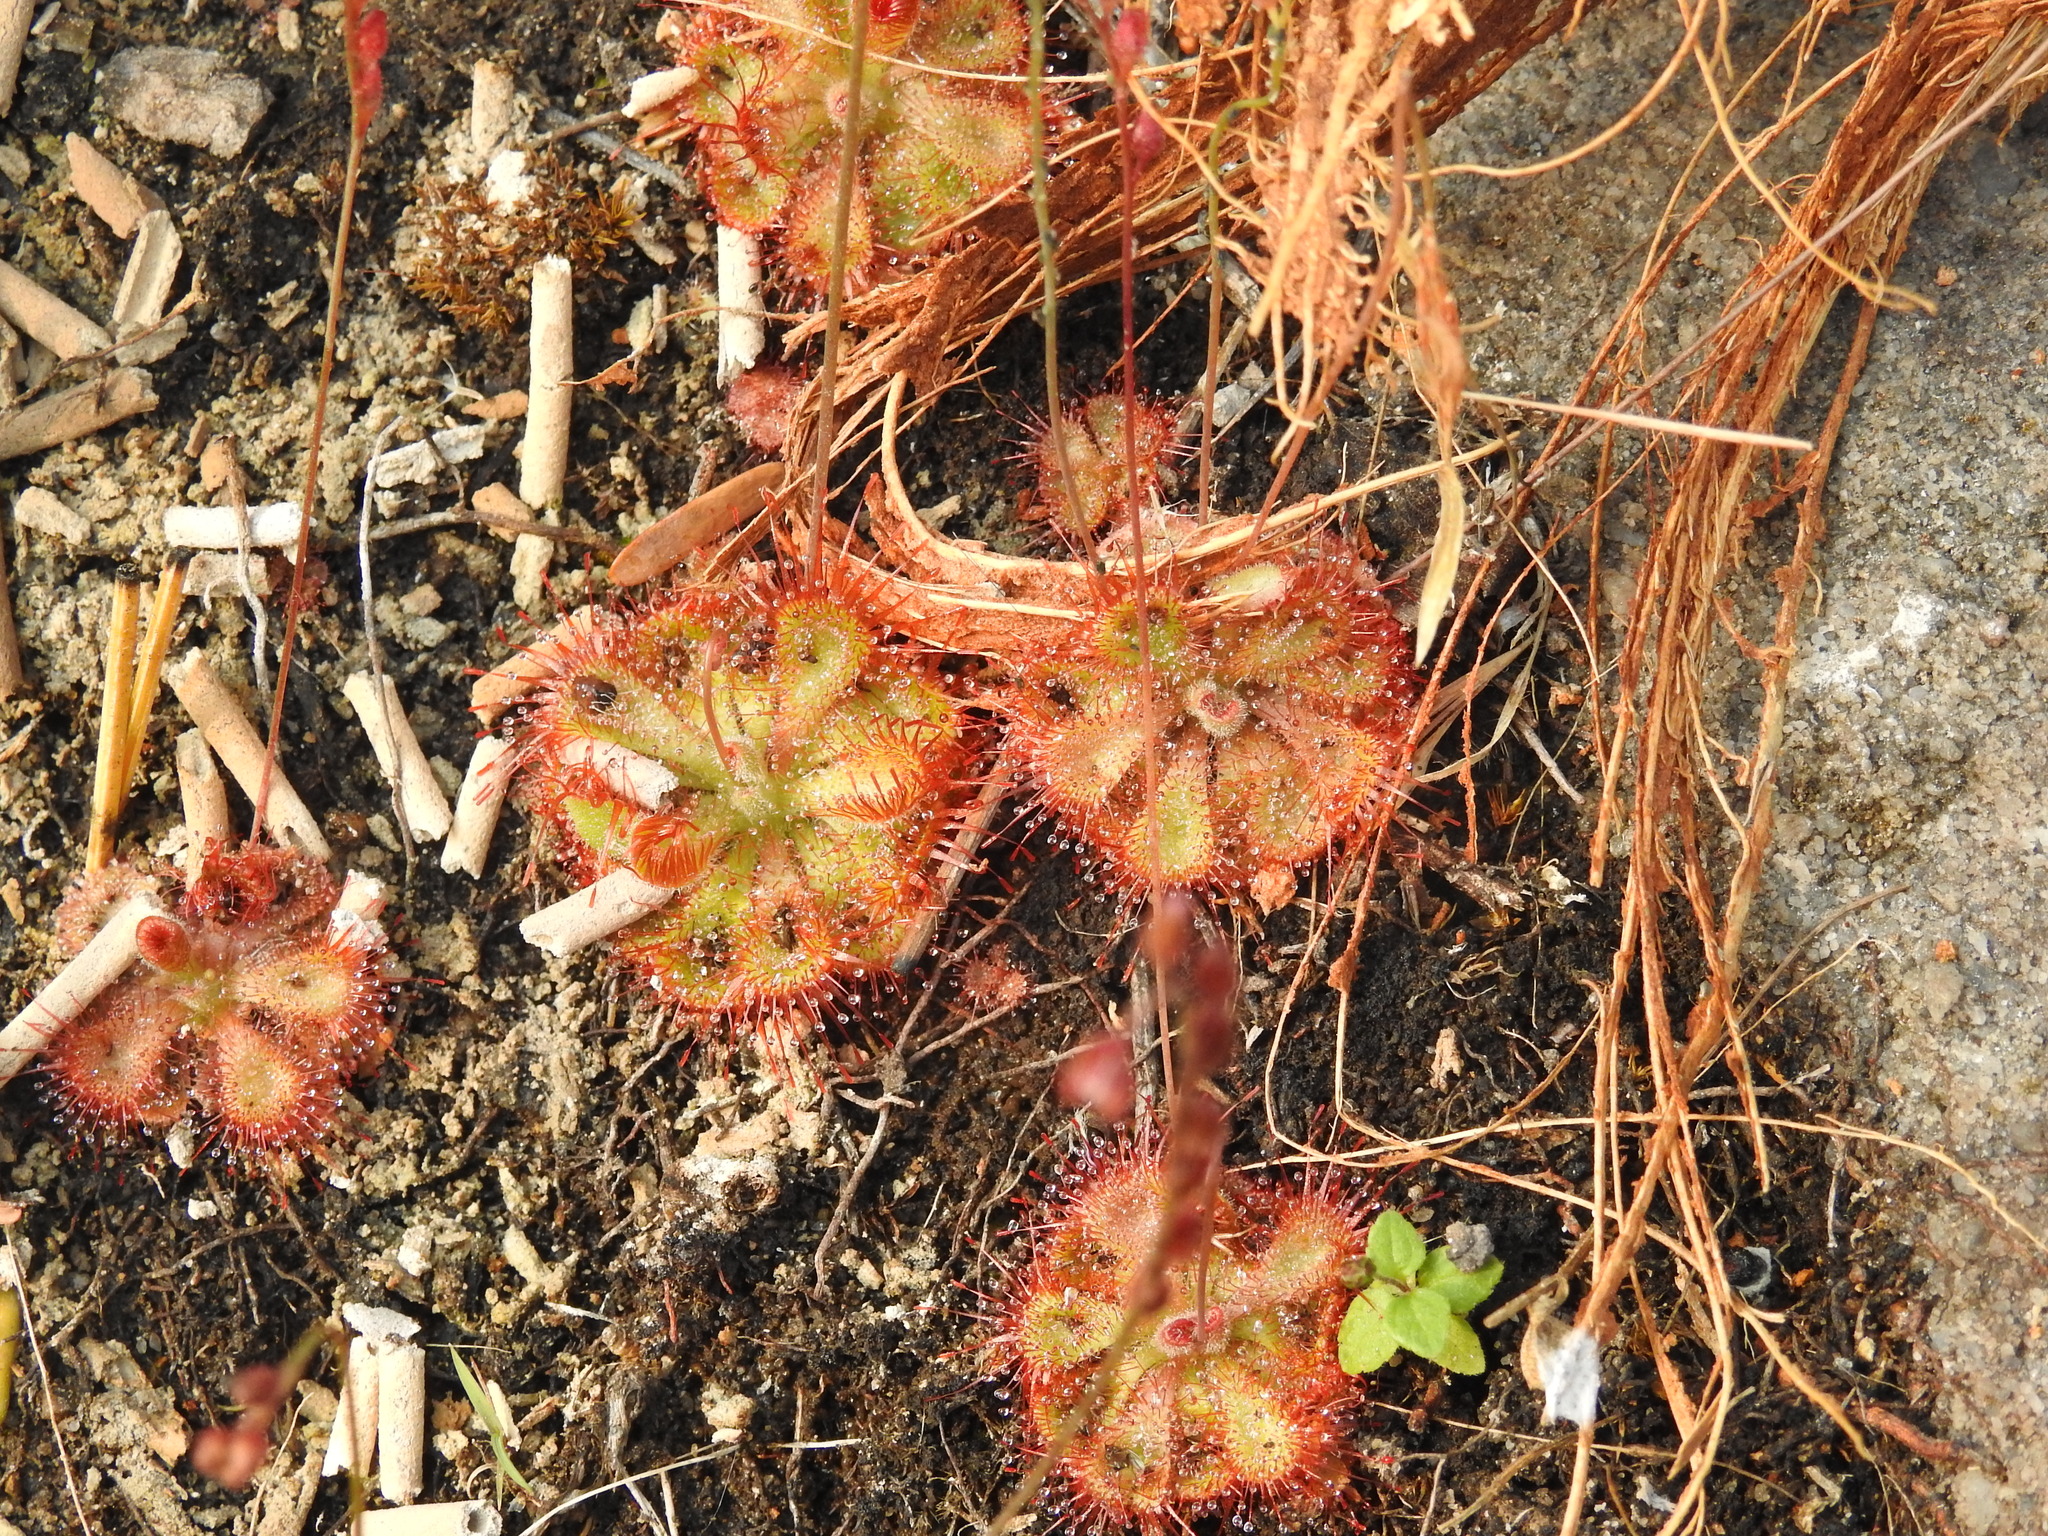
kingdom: Plantae
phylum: Tracheophyta
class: Magnoliopsida
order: Caryophyllales
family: Droseraceae
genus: Drosera
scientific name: Drosera spatulata
